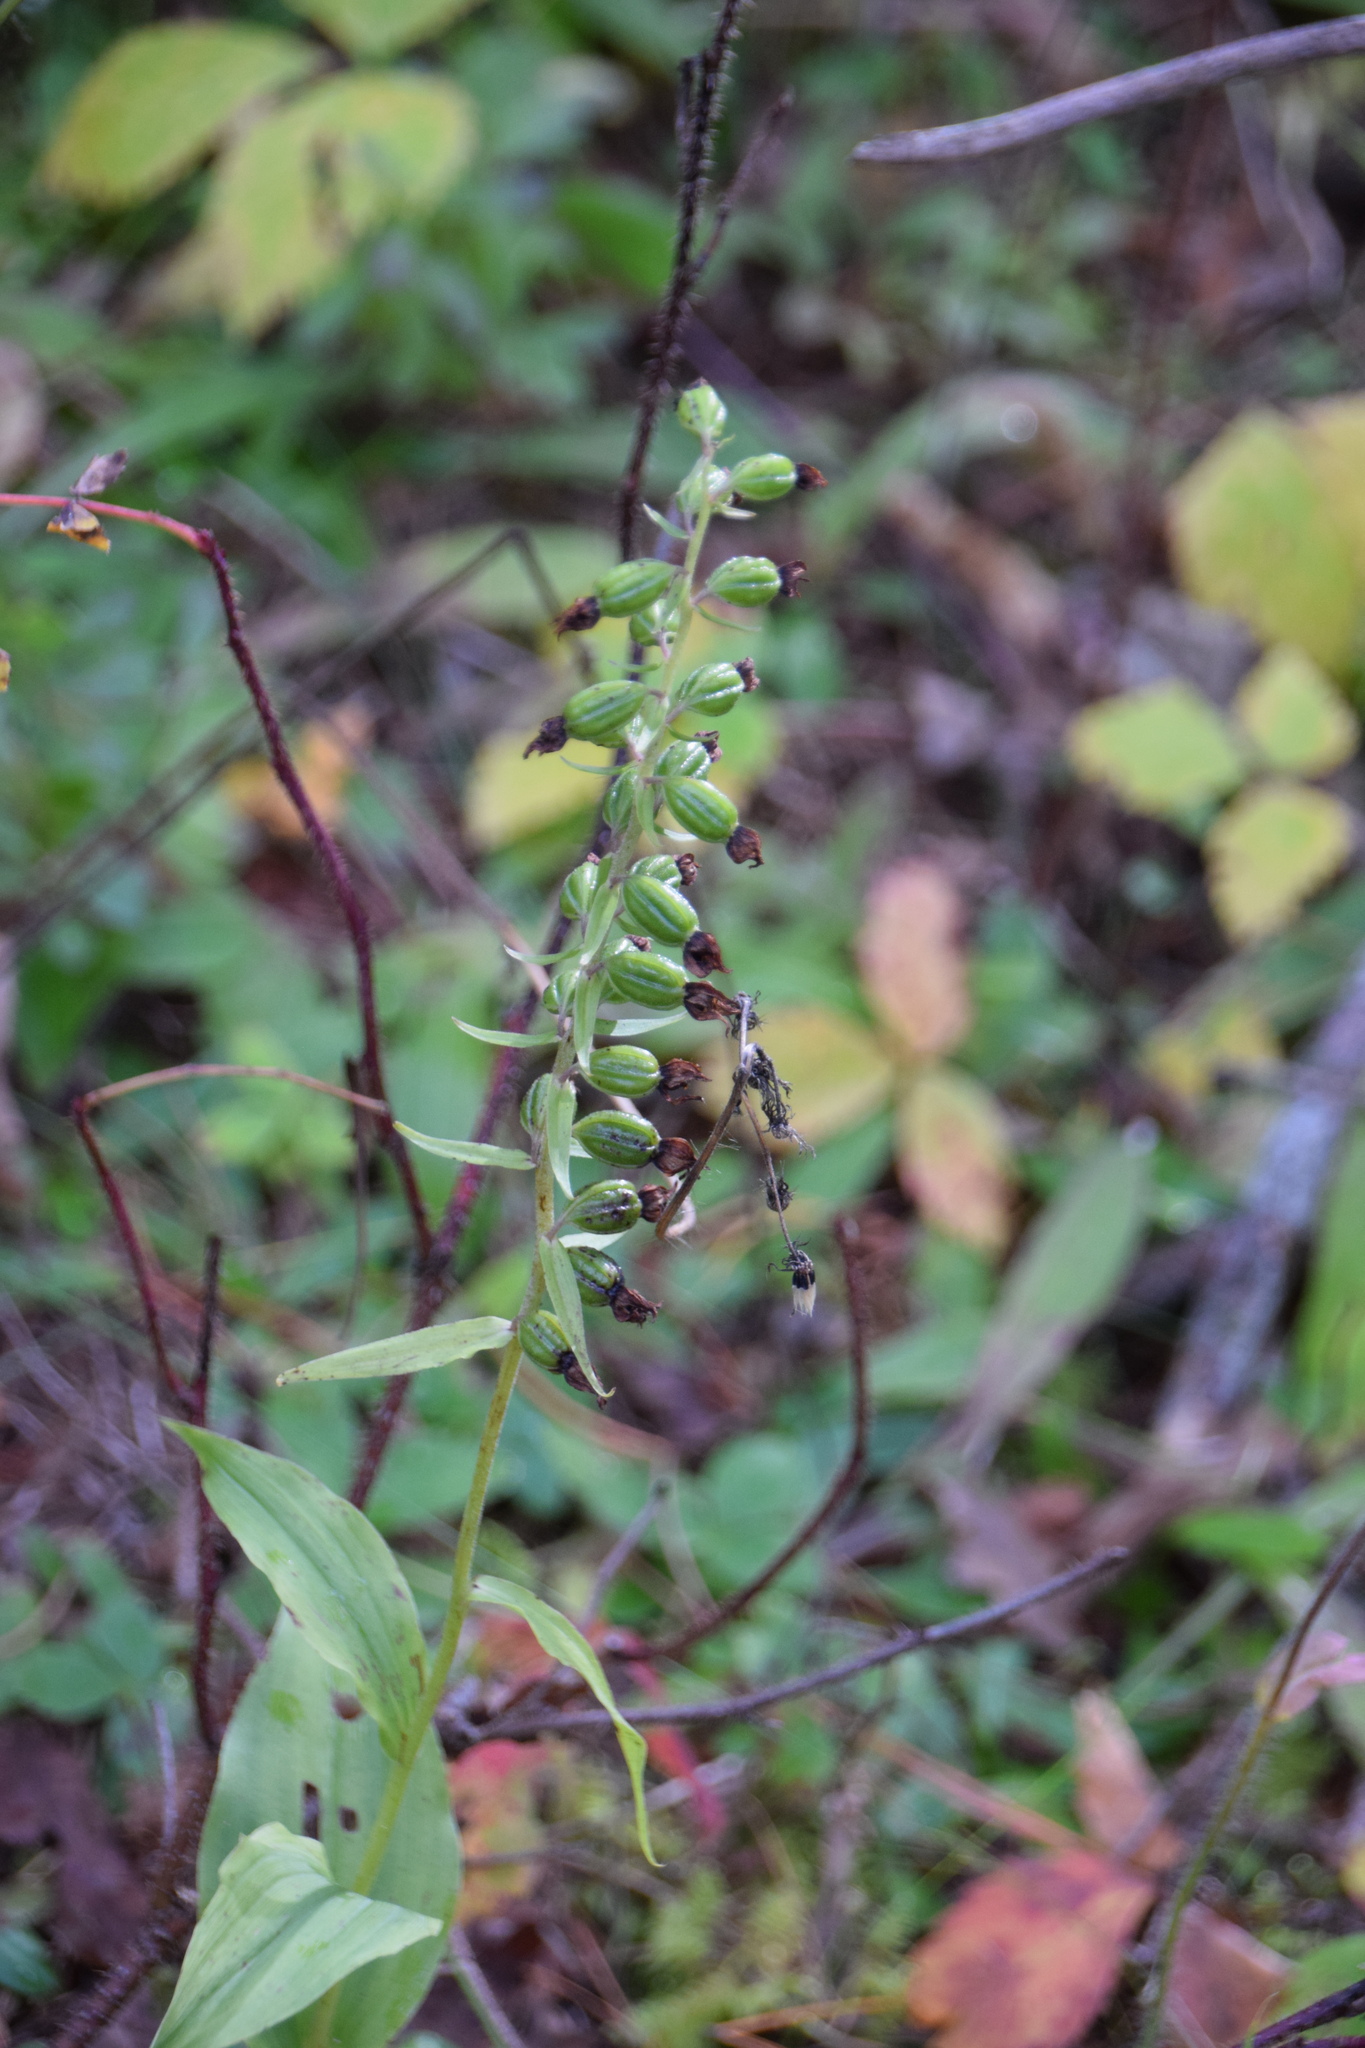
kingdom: Plantae
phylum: Tracheophyta
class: Liliopsida
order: Asparagales
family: Orchidaceae
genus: Epipactis
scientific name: Epipactis helleborine
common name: Broad-leaved helleborine
